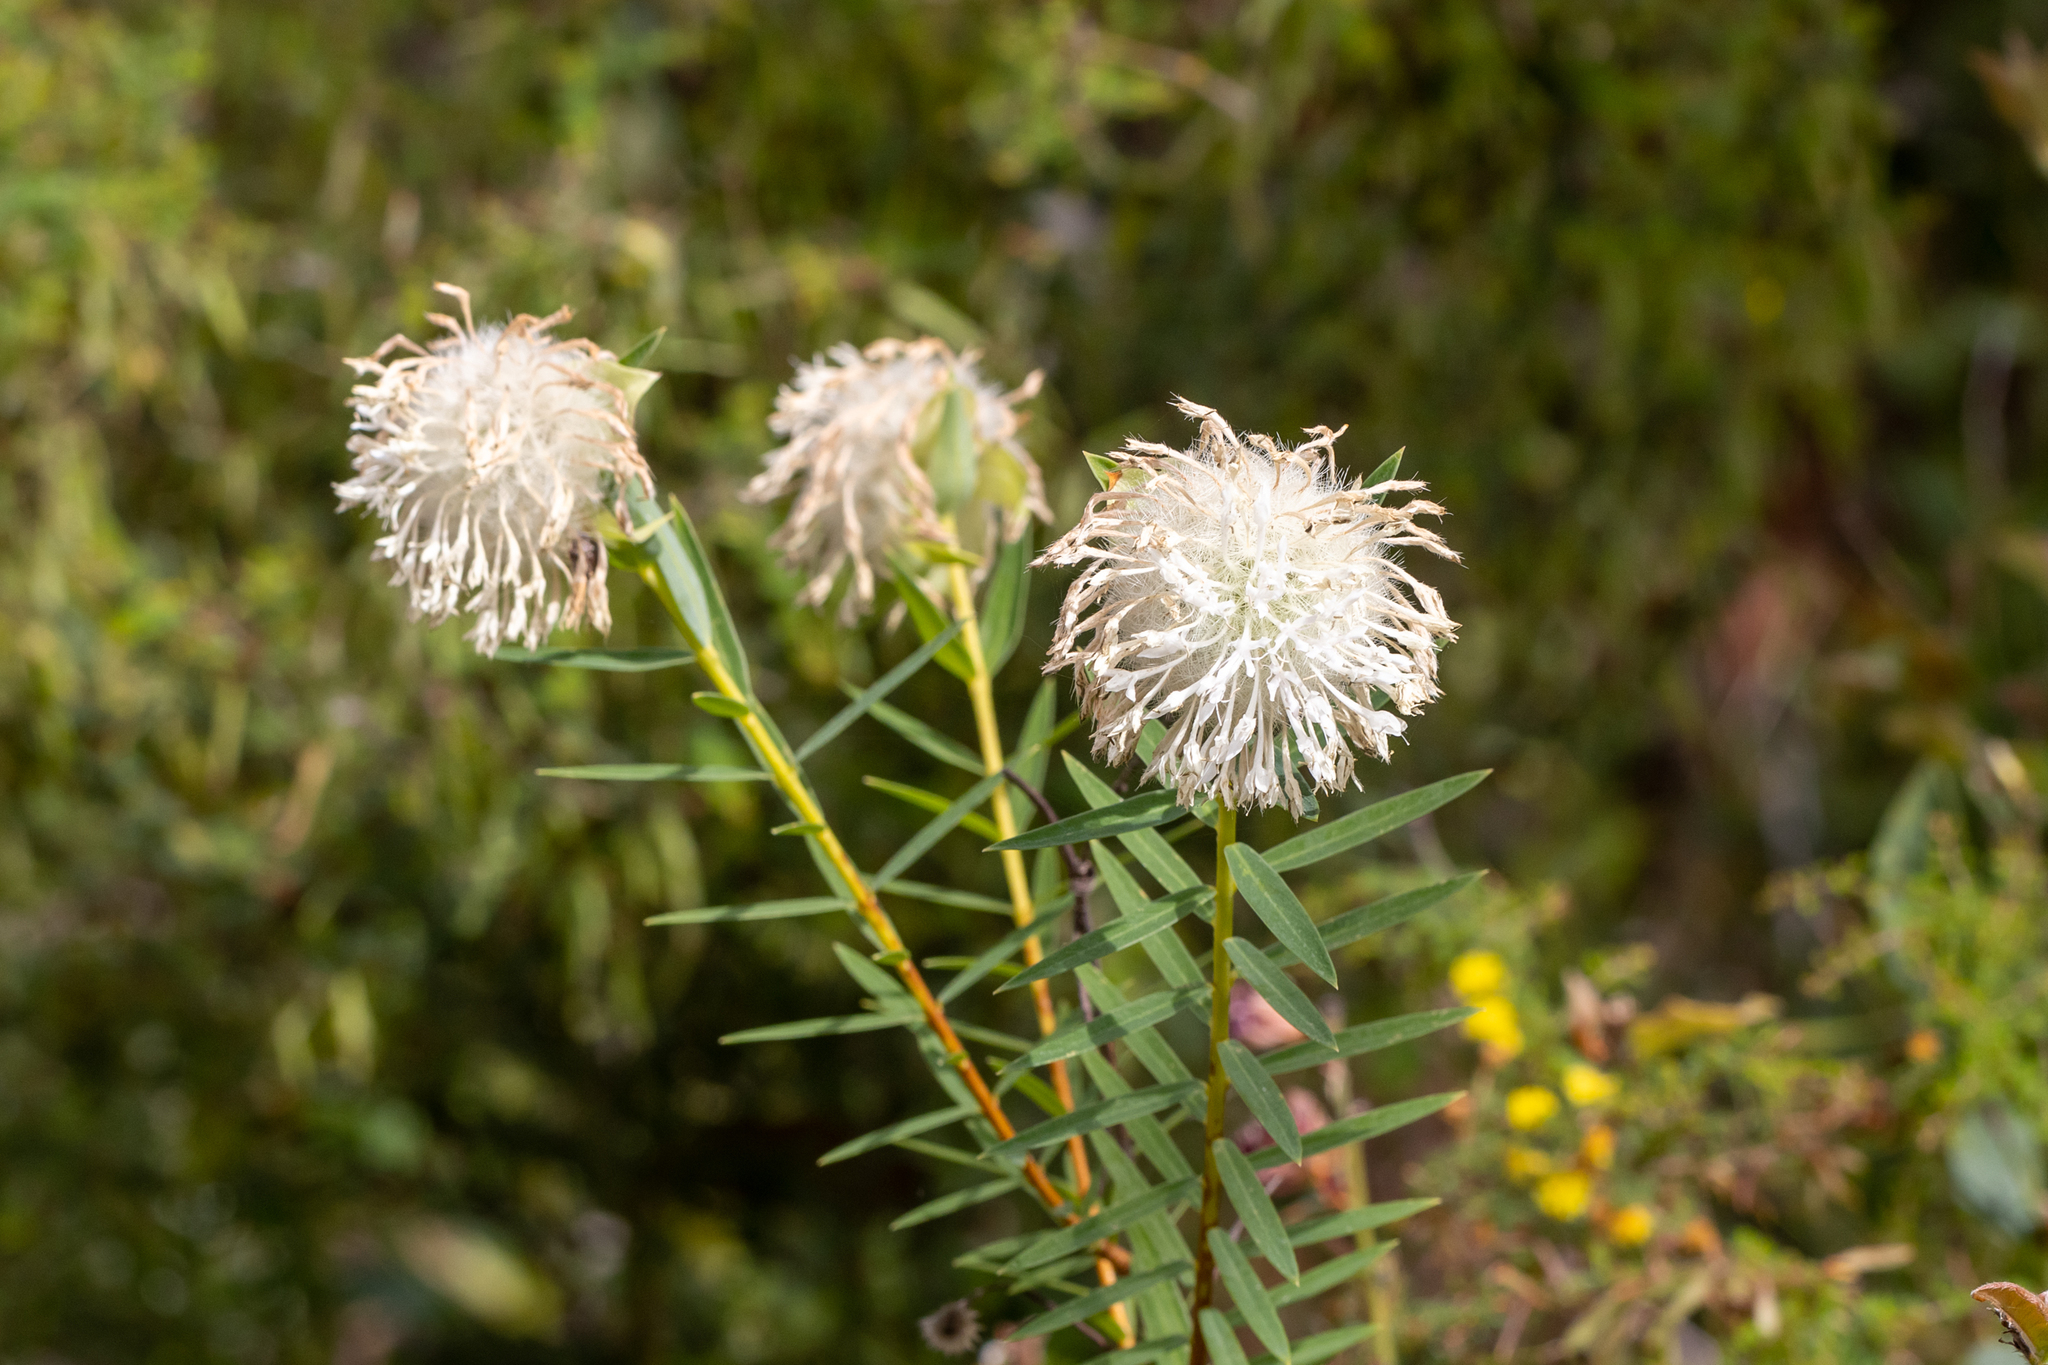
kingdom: Plantae
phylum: Tracheophyta
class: Magnoliopsida
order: Malvales
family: Thymelaeaceae
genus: Pimelea
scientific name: Pimelea spectabilis
